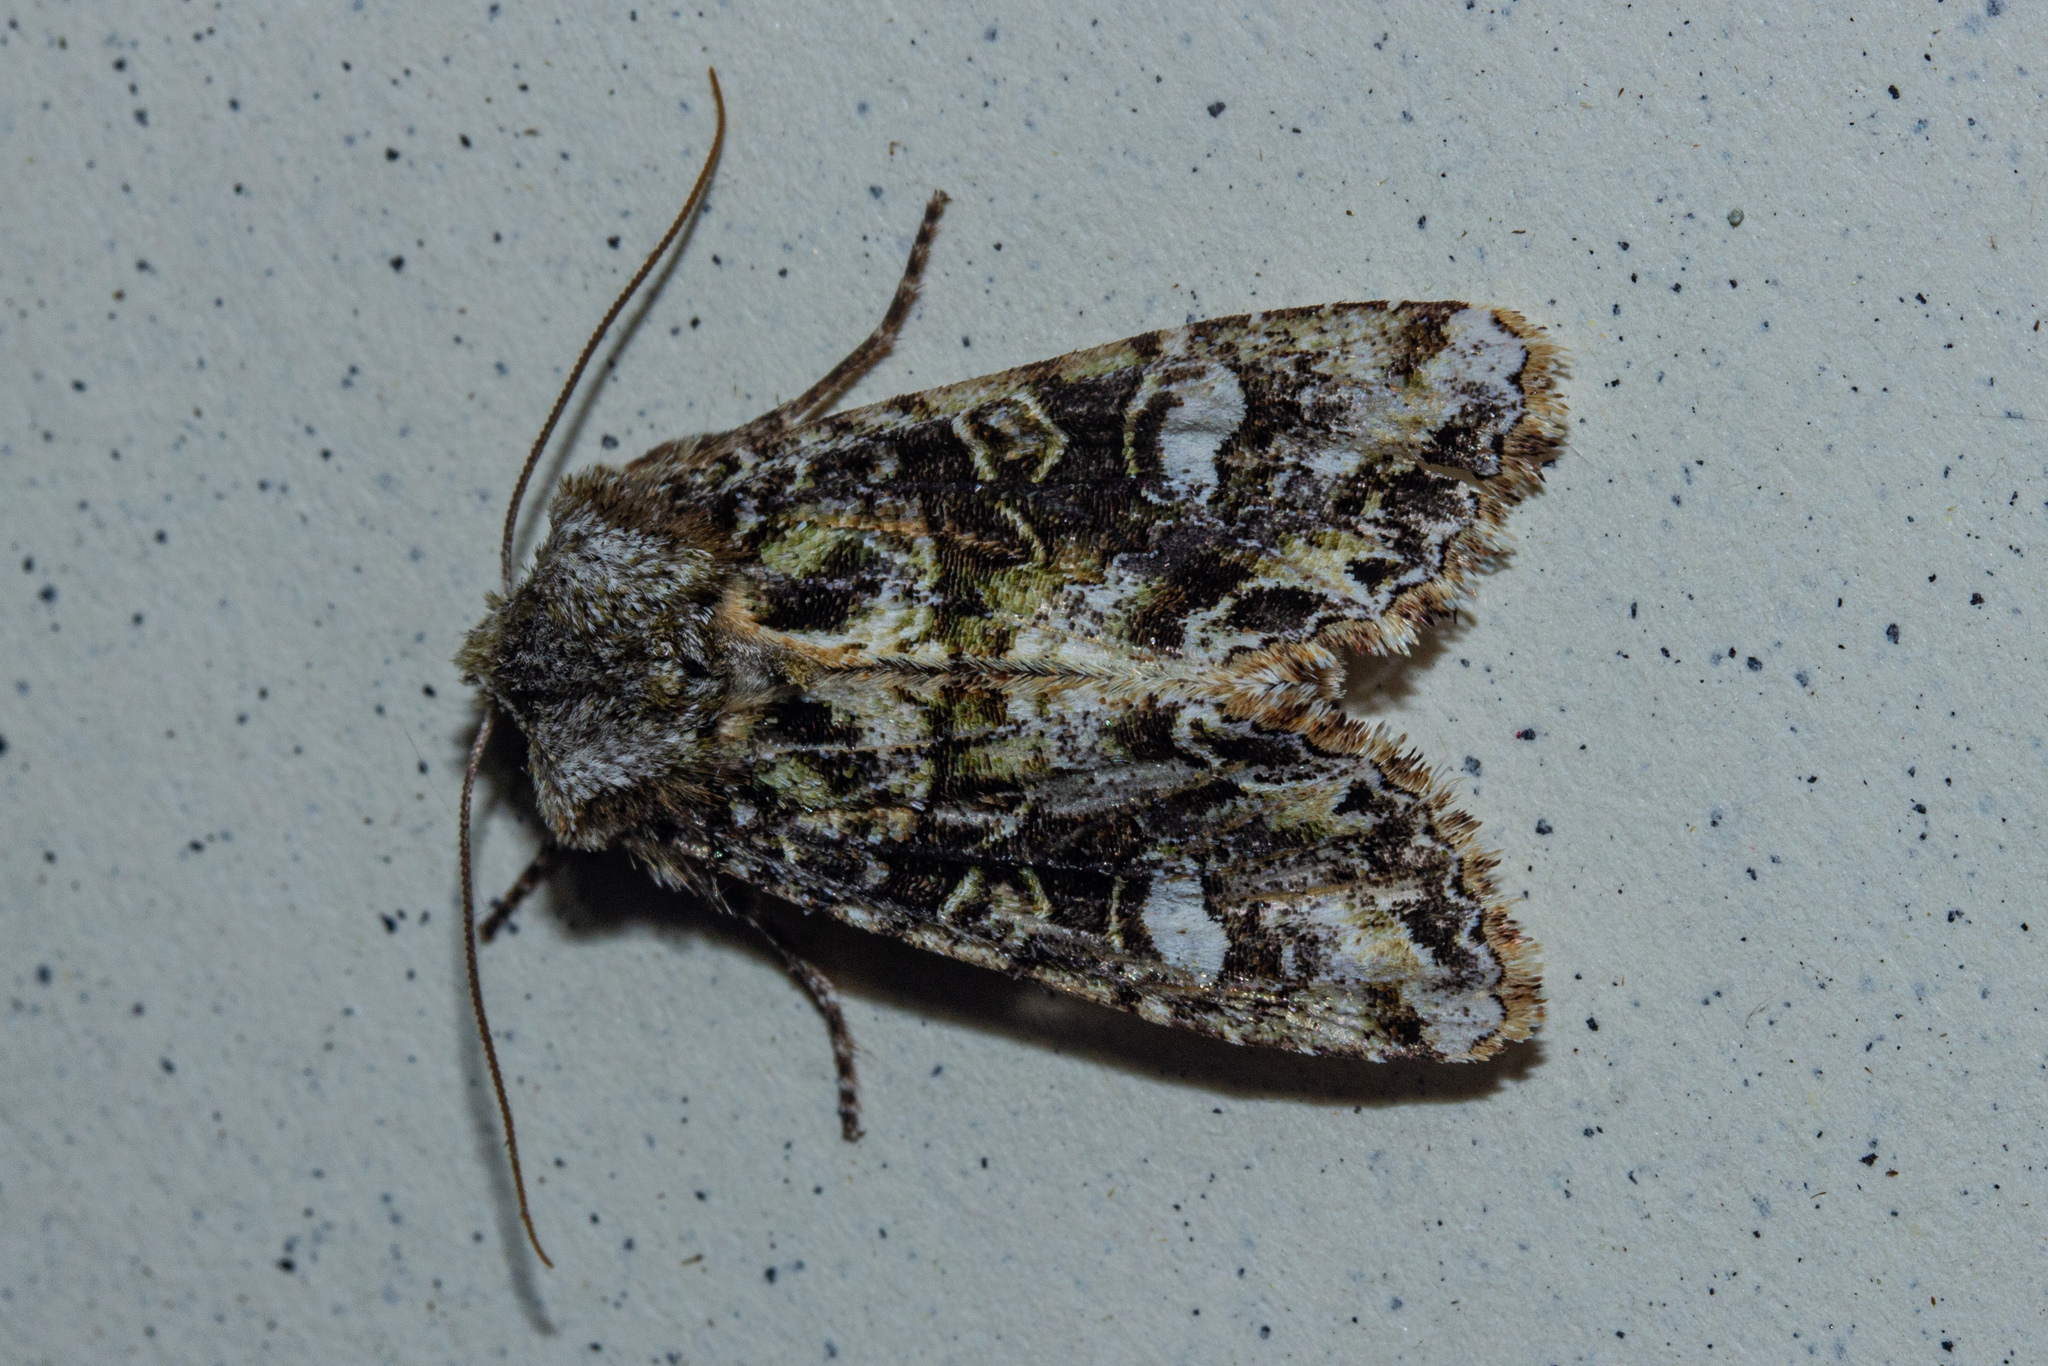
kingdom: Animalia
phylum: Arthropoda
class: Insecta
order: Lepidoptera
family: Noctuidae
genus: Ichneutica
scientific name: Ichneutica
